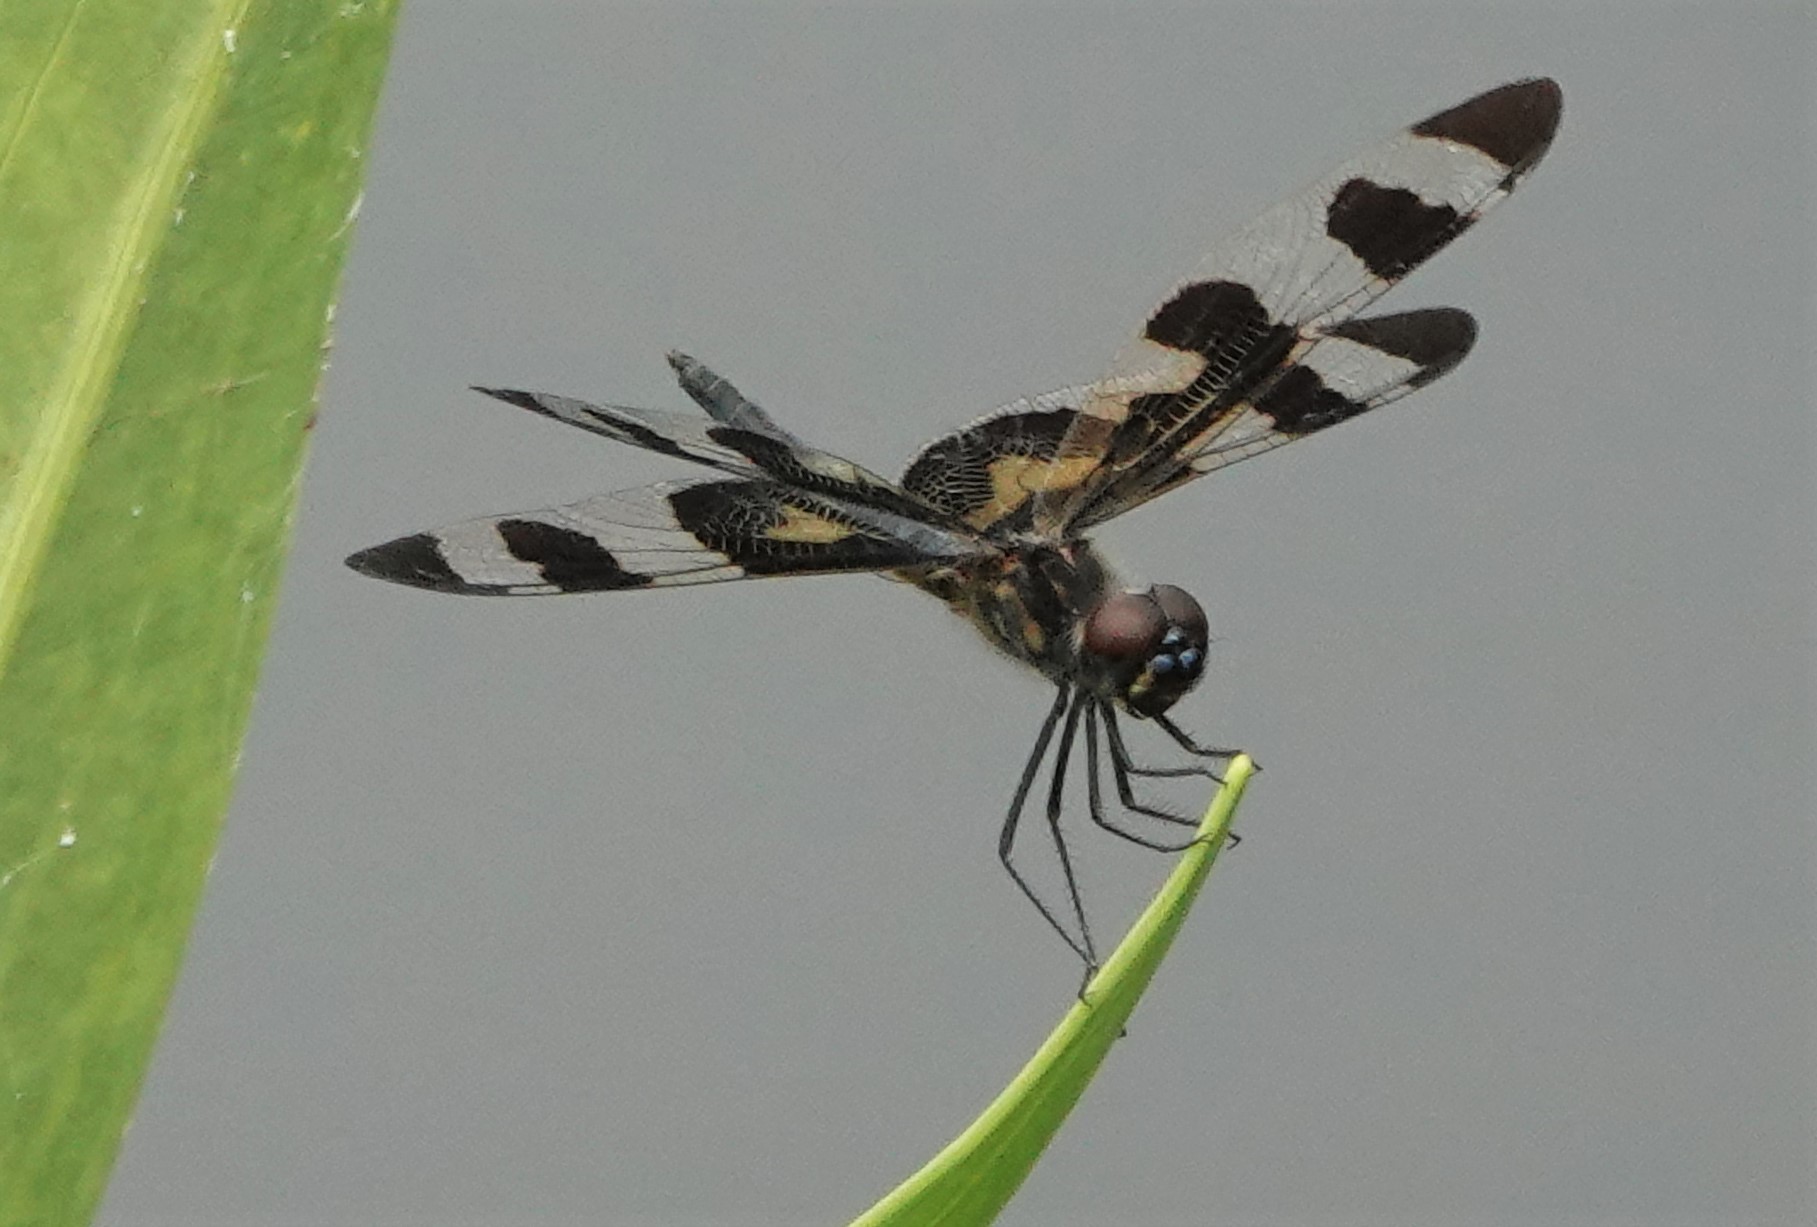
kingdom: Animalia
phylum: Arthropoda
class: Insecta
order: Odonata
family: Libellulidae
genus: Celithemis
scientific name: Celithemis fasciata
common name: Banded pennant
